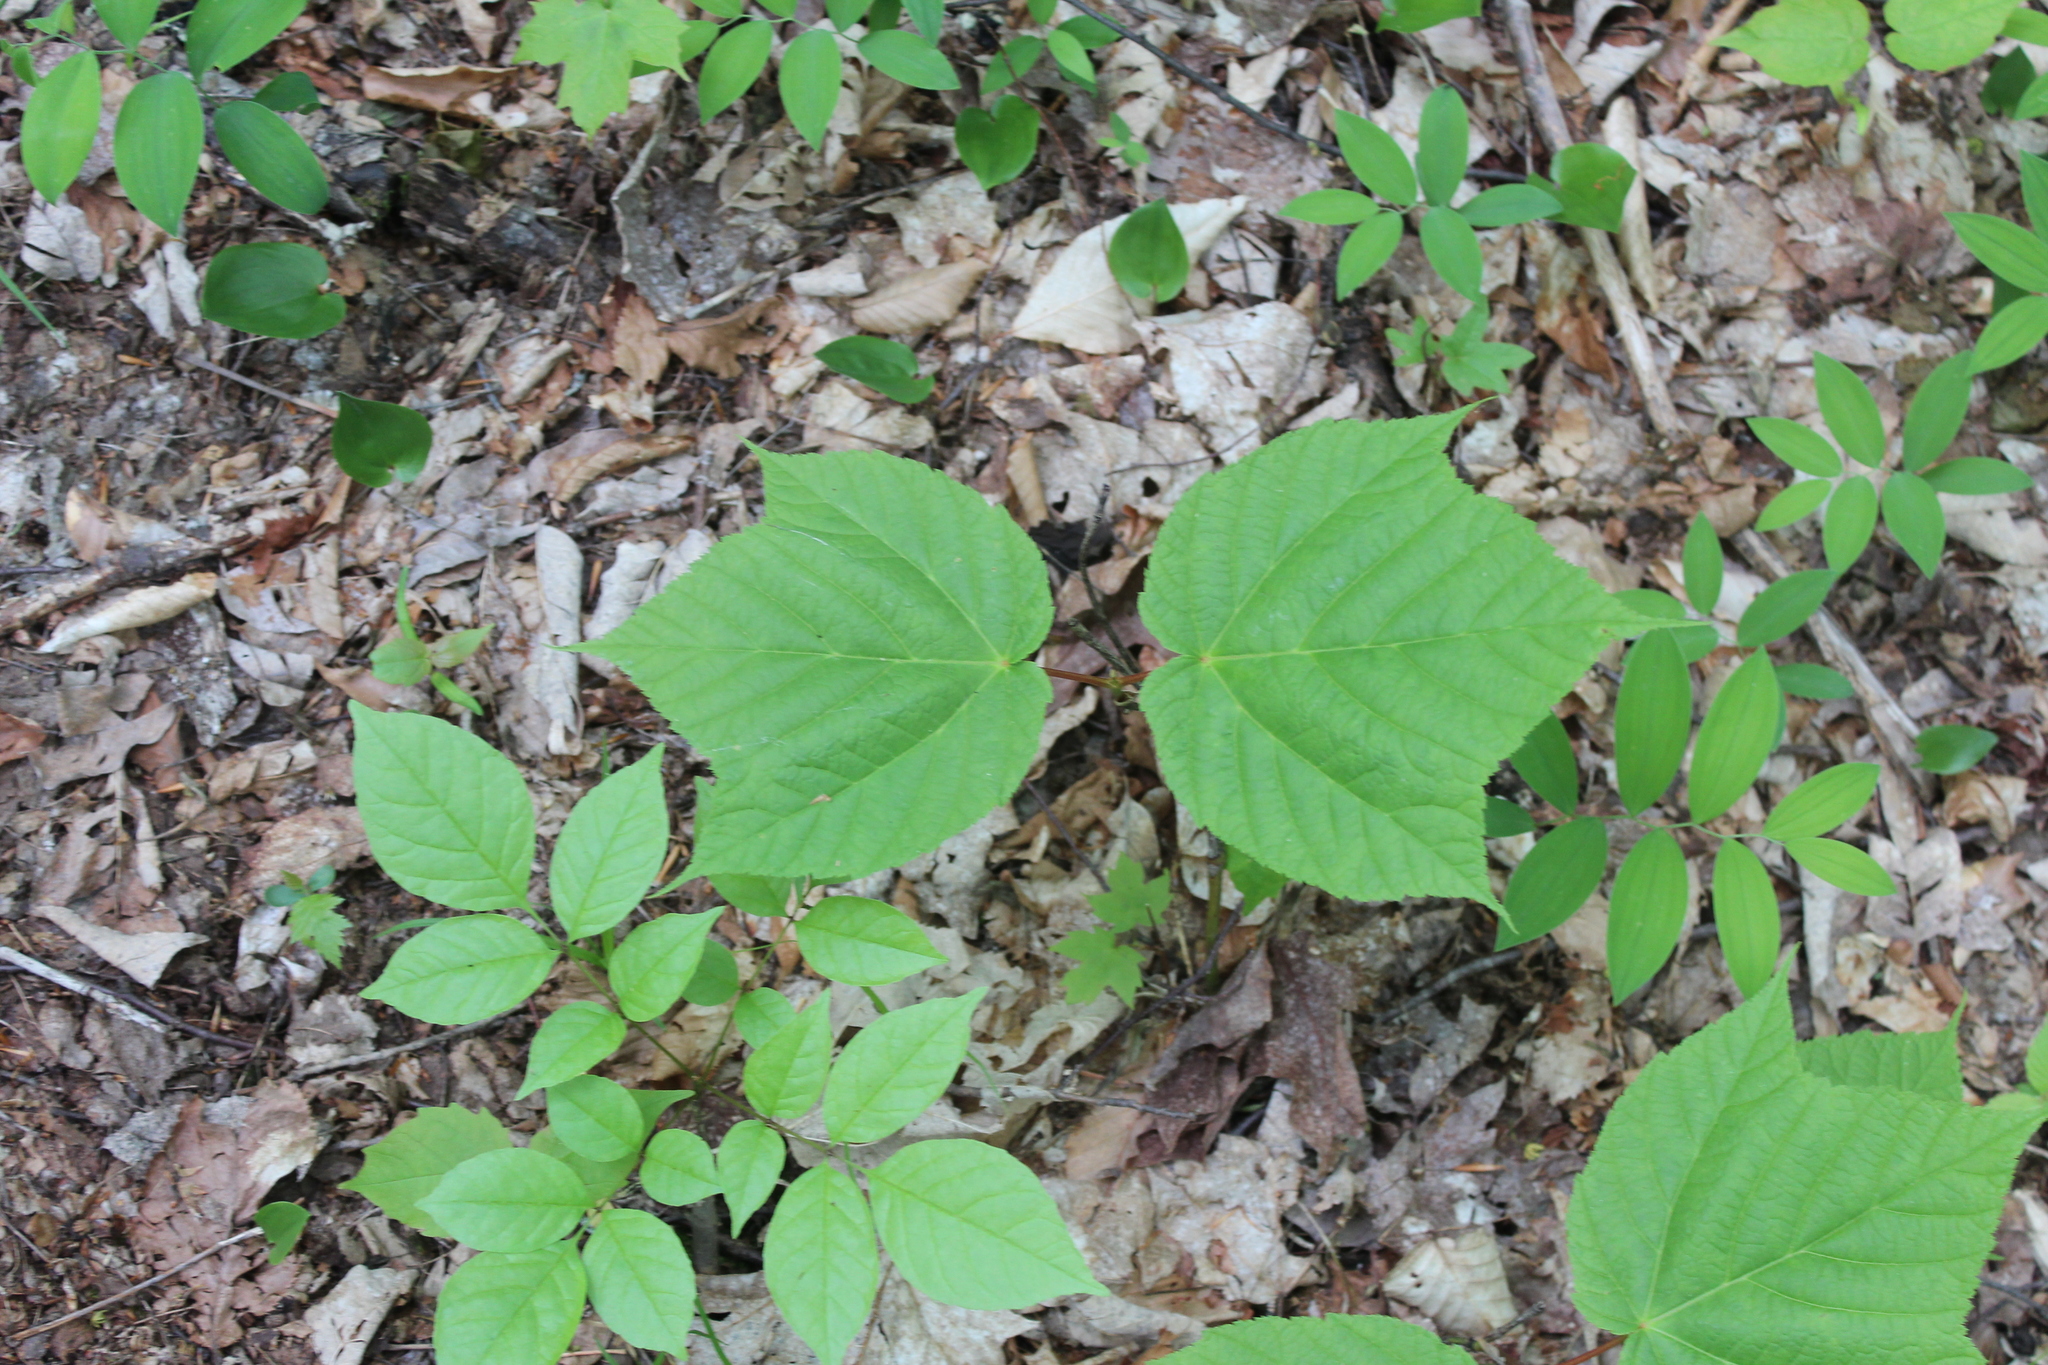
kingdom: Plantae
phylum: Tracheophyta
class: Magnoliopsida
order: Sapindales
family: Sapindaceae
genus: Acer
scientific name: Acer pensylvanicum
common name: Moosewood
